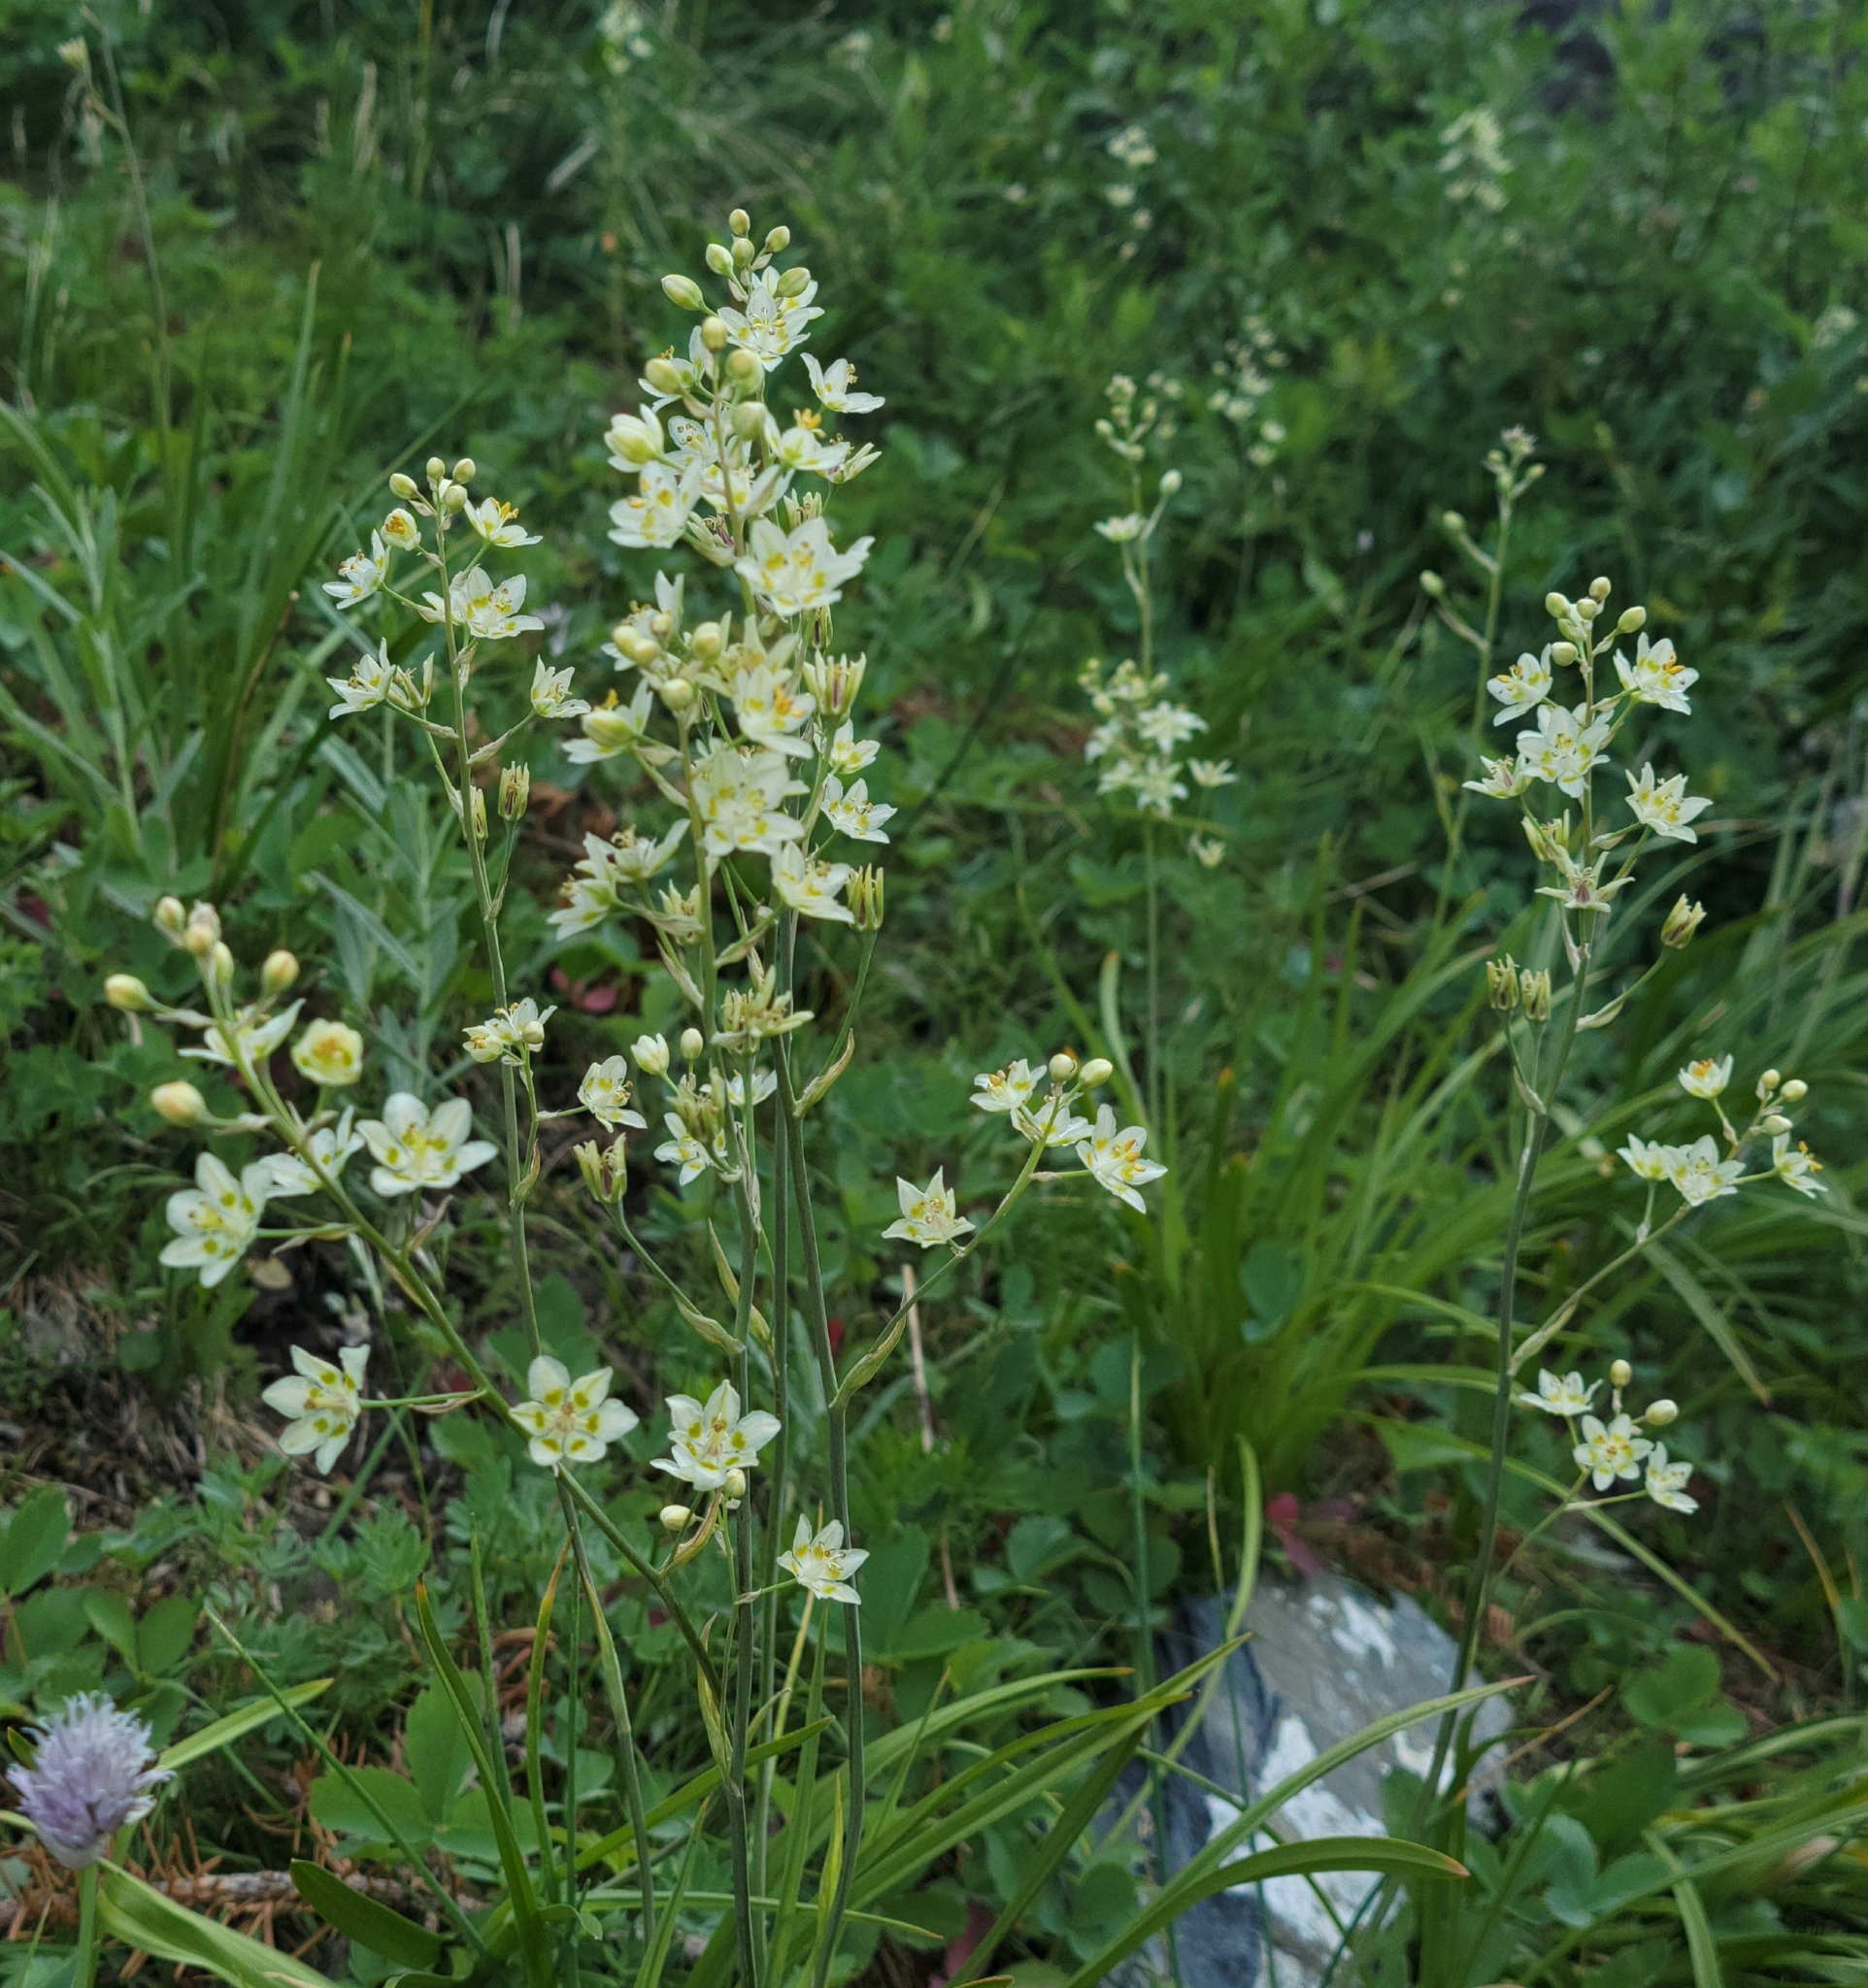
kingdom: Plantae
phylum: Tracheophyta
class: Liliopsida
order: Liliales
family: Melanthiaceae
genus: Anticlea
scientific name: Anticlea elegans
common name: Mountain death camas
